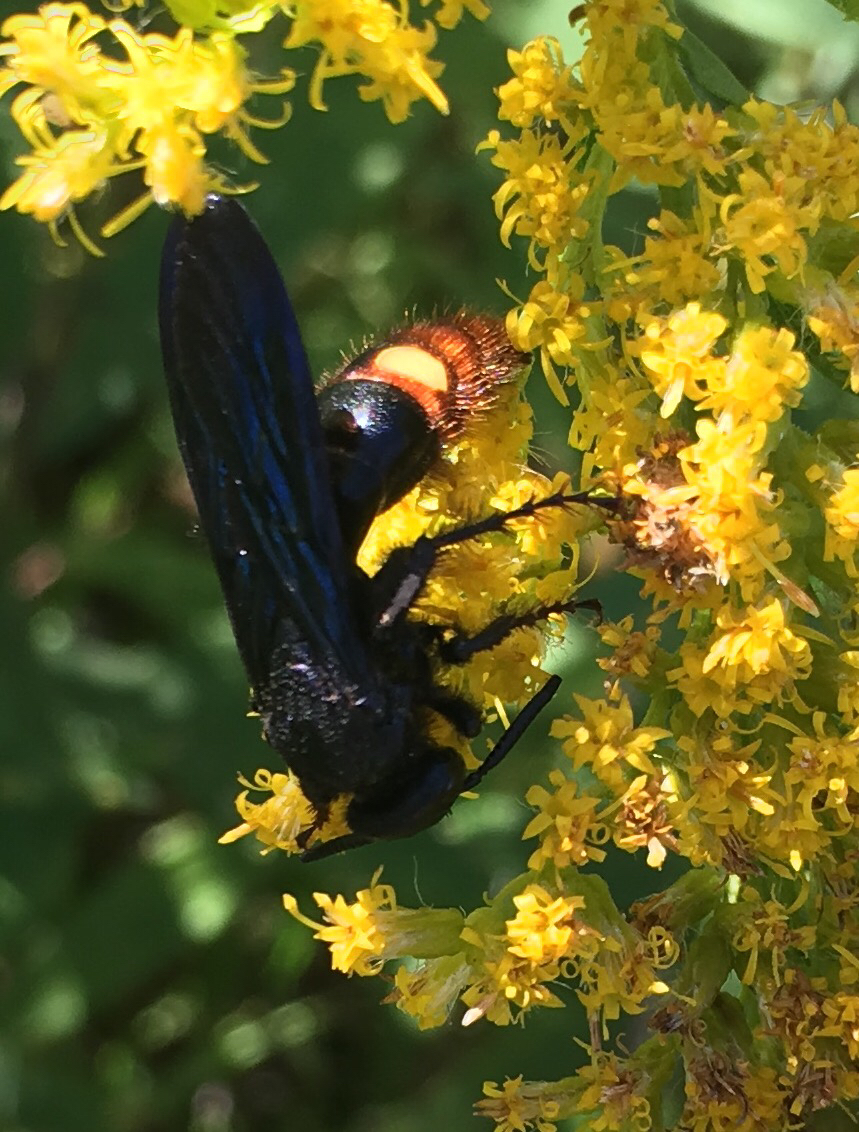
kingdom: Animalia
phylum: Arthropoda
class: Insecta
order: Hymenoptera
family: Scoliidae
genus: Scolia
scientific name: Scolia dubia
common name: Blue-winged scoliid wasp
